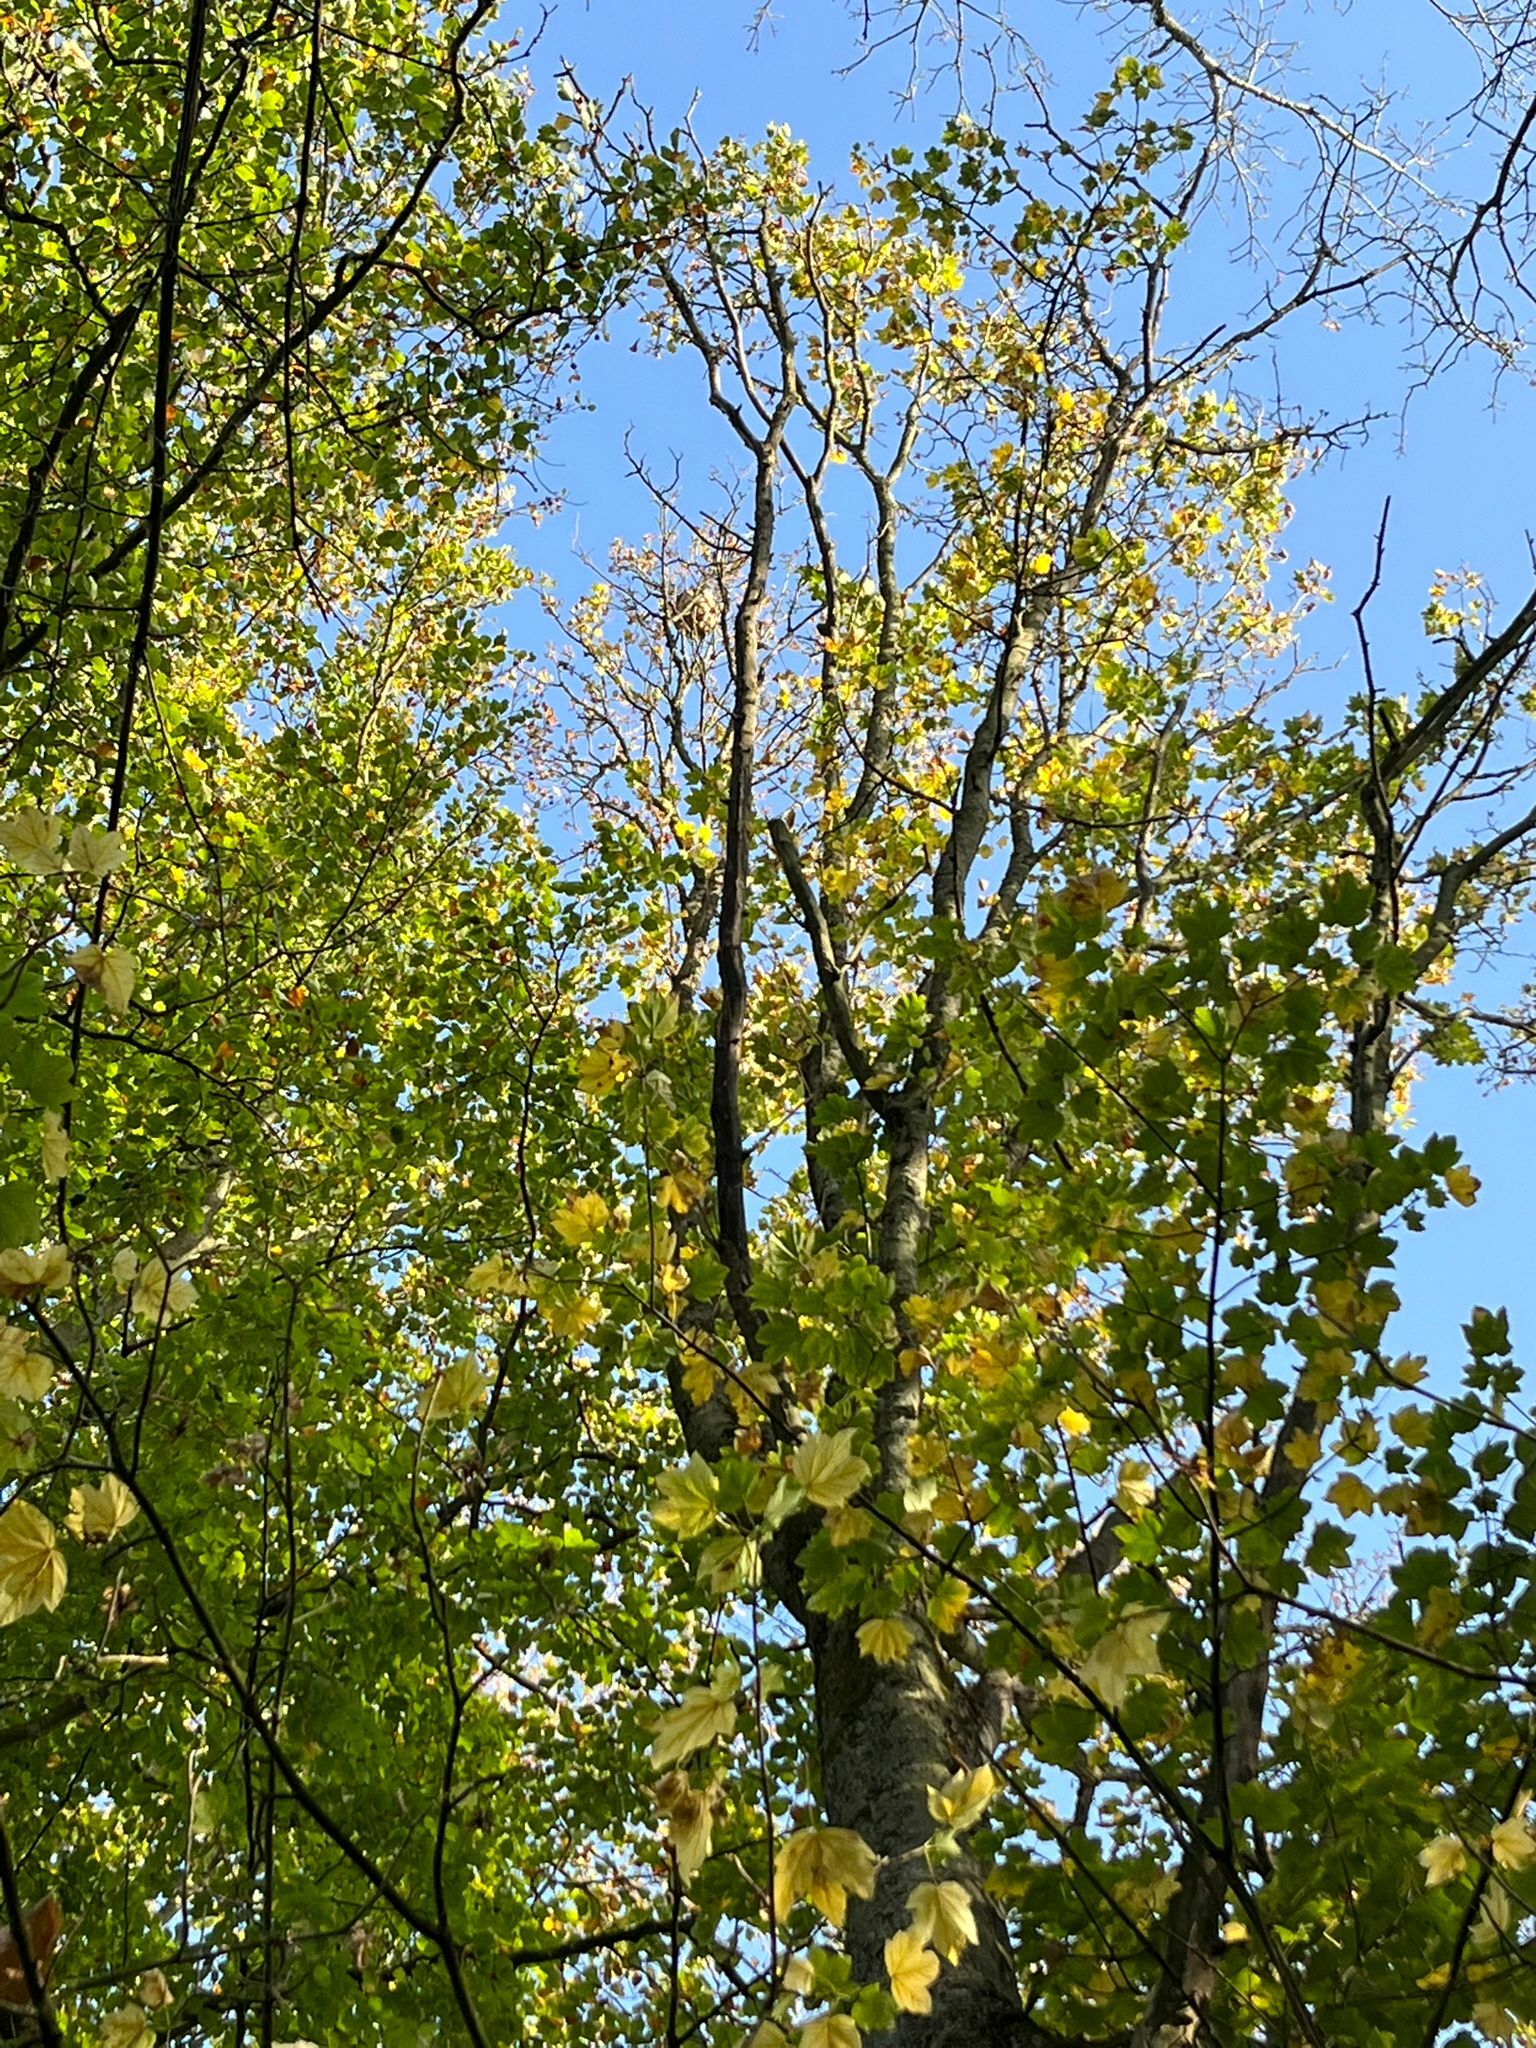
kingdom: Animalia
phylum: Arthropoda
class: Insecta
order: Hymenoptera
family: Vespidae
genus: Vespa
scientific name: Vespa velutina
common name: Asian hornet
